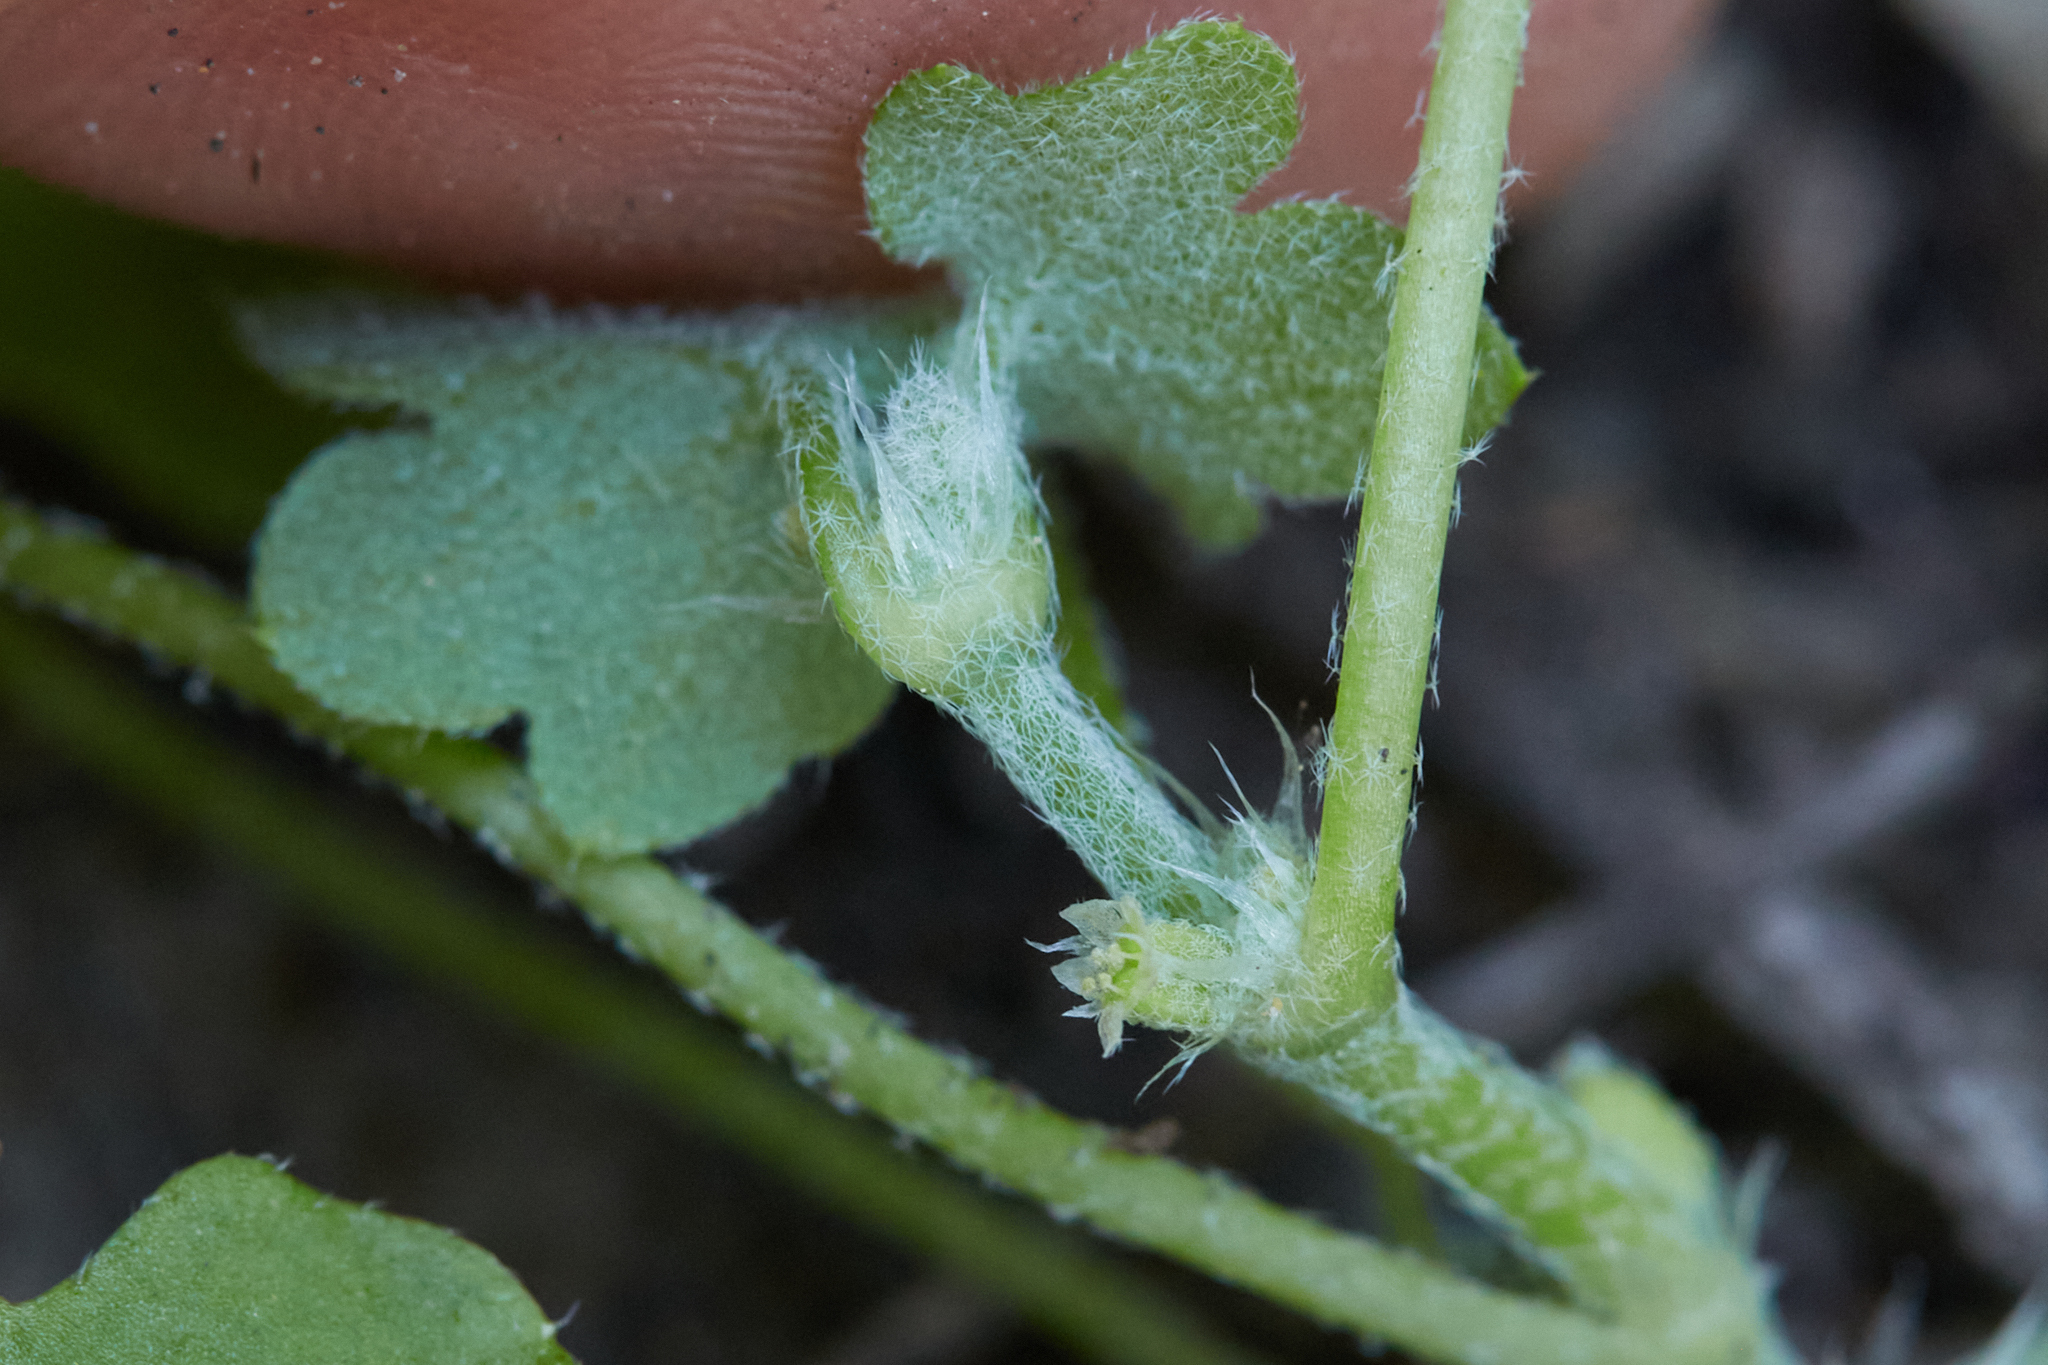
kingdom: Plantae
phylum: Tracheophyta
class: Magnoliopsida
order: Apiales
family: Apiaceae
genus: Bowlesia
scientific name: Bowlesia incana
